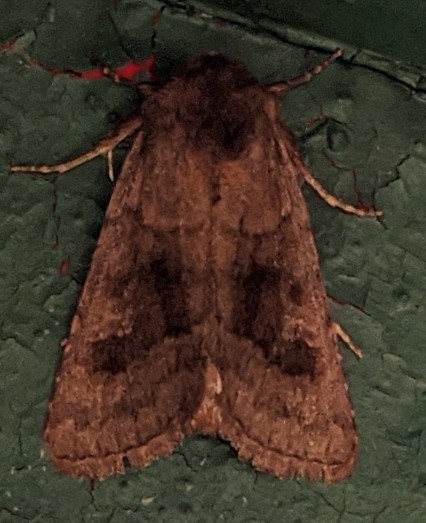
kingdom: Animalia
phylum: Arthropoda
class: Insecta
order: Lepidoptera
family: Noctuidae
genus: Nephelodes
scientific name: Nephelodes minians
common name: Bronzed cutworm
